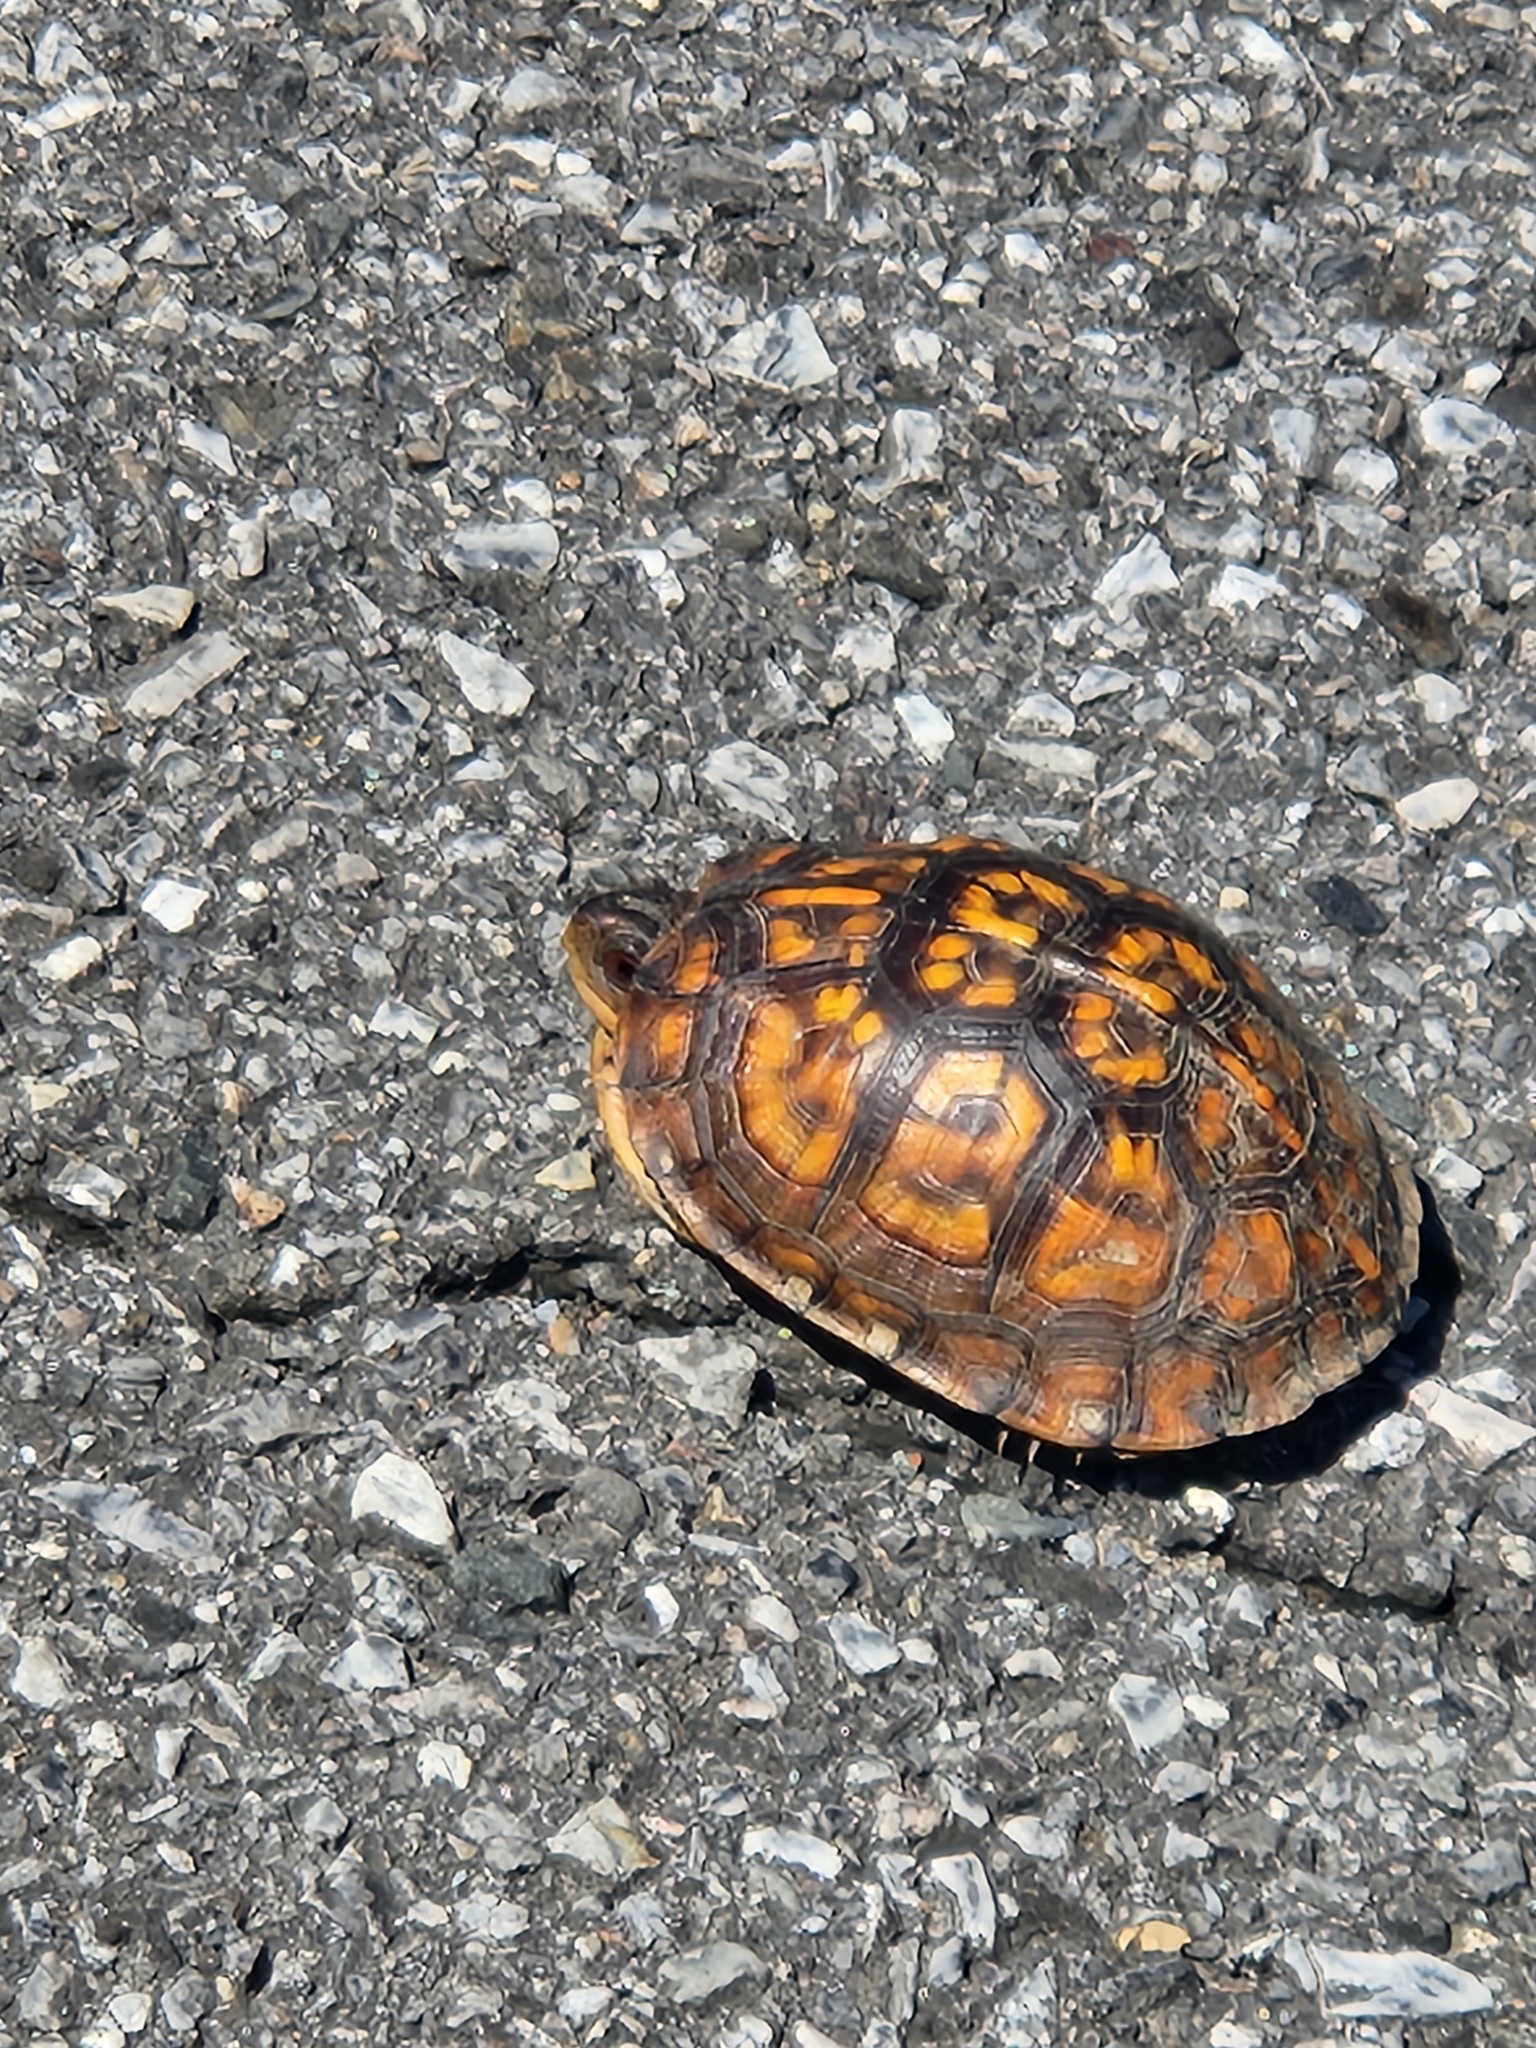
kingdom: Animalia
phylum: Chordata
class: Testudines
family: Emydidae
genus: Terrapene
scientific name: Terrapene carolina
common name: Common box turtle
